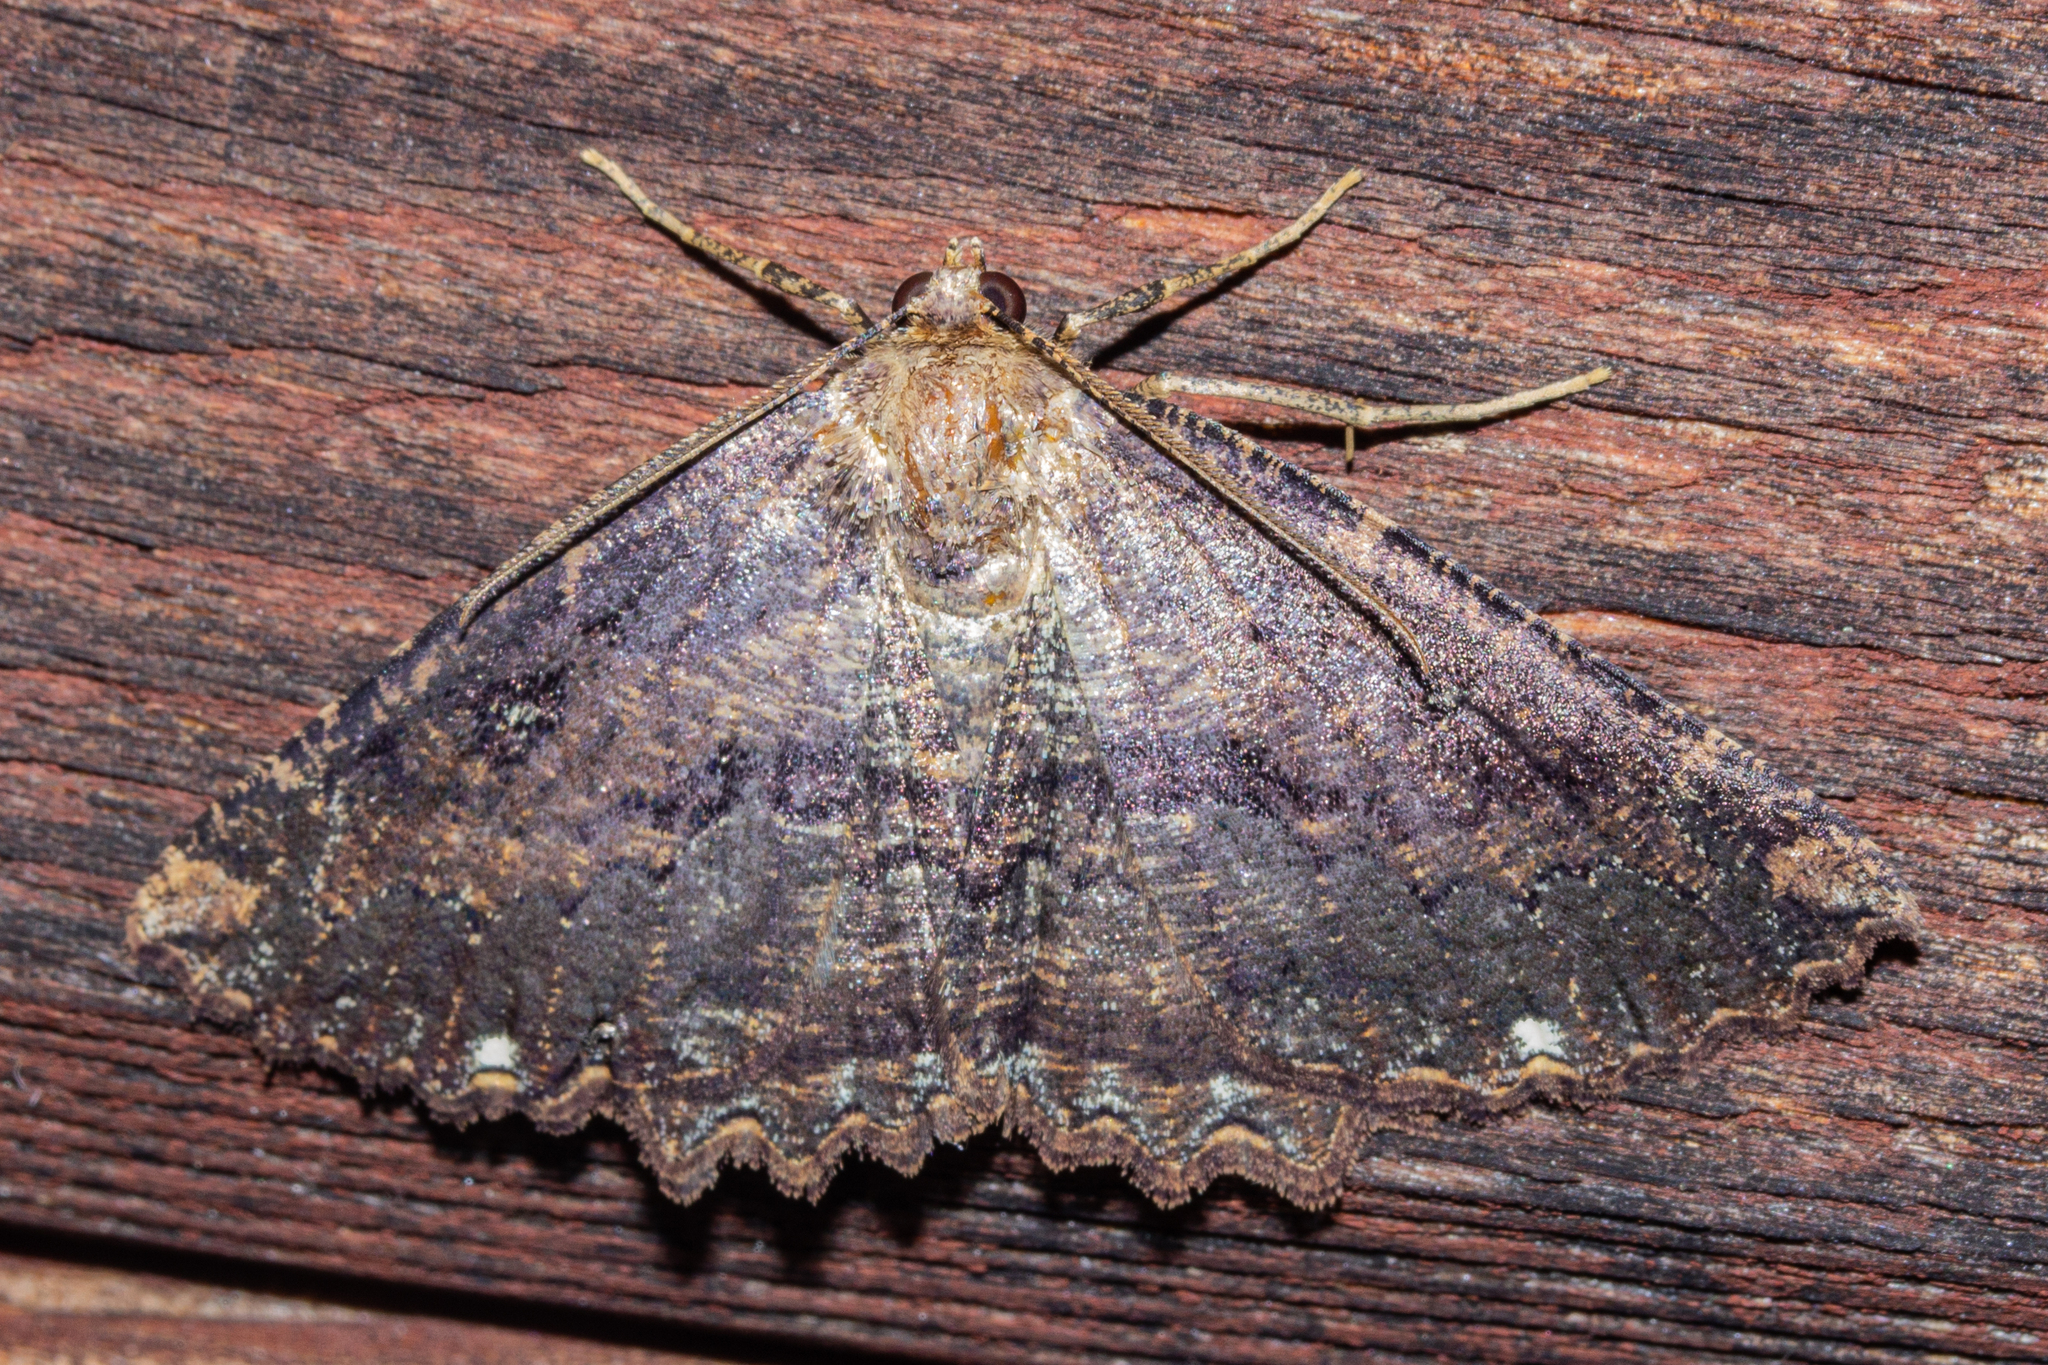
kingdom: Animalia
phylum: Arthropoda
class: Insecta
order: Lepidoptera
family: Geometridae
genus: Gellonia
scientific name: Gellonia dejectaria
